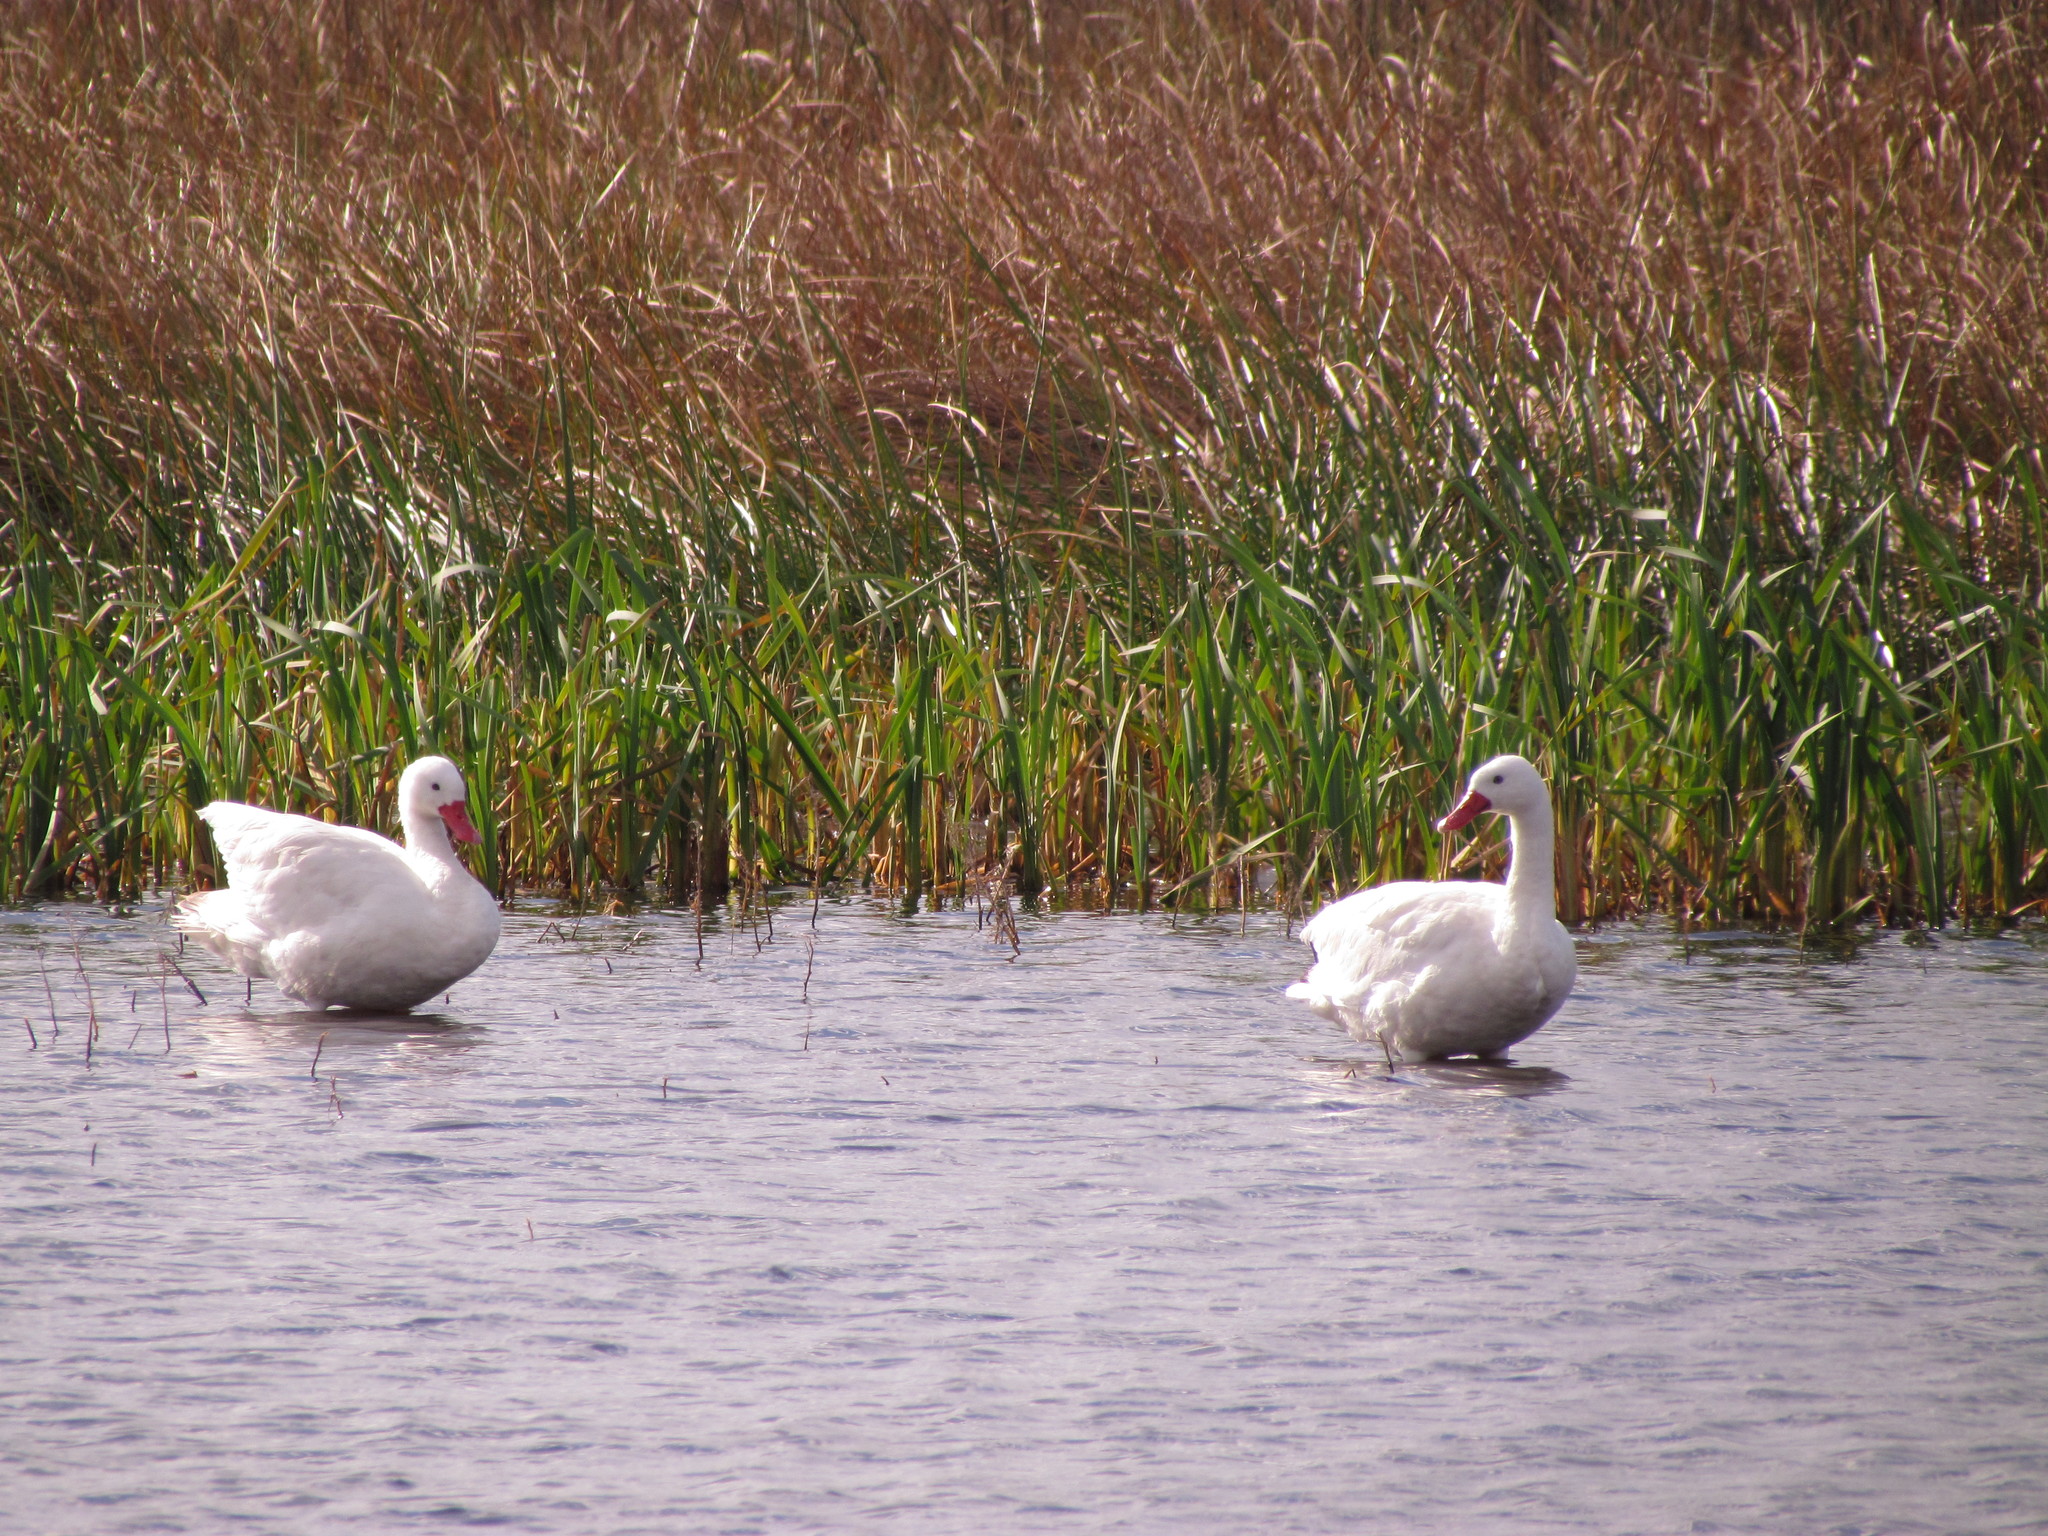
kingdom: Animalia
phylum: Chordata
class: Aves
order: Anseriformes
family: Anatidae
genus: Coscoroba
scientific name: Coscoroba coscoroba
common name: Coscoroba swan
